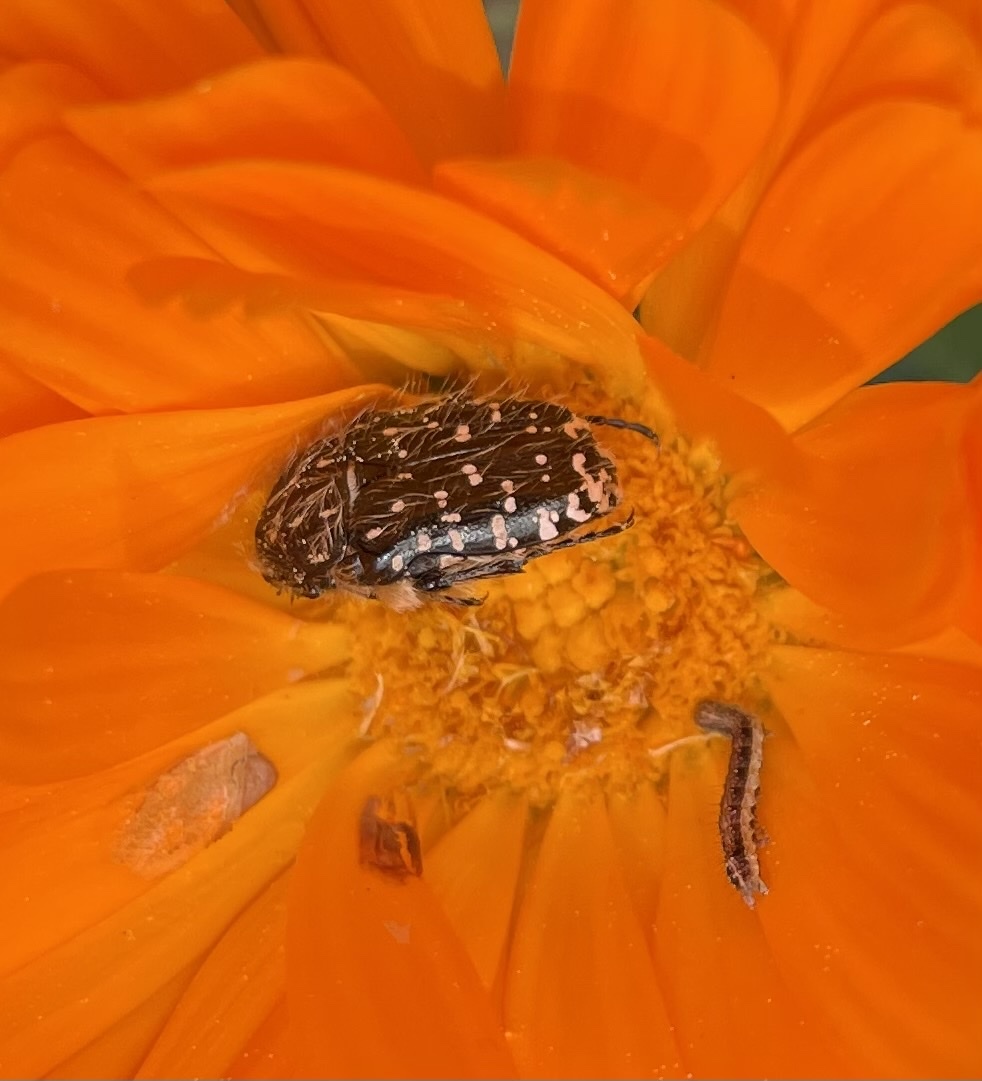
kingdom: Animalia
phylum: Arthropoda
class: Insecta
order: Coleoptera
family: Scarabaeidae
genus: Oxythyrea
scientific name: Oxythyrea funesta
